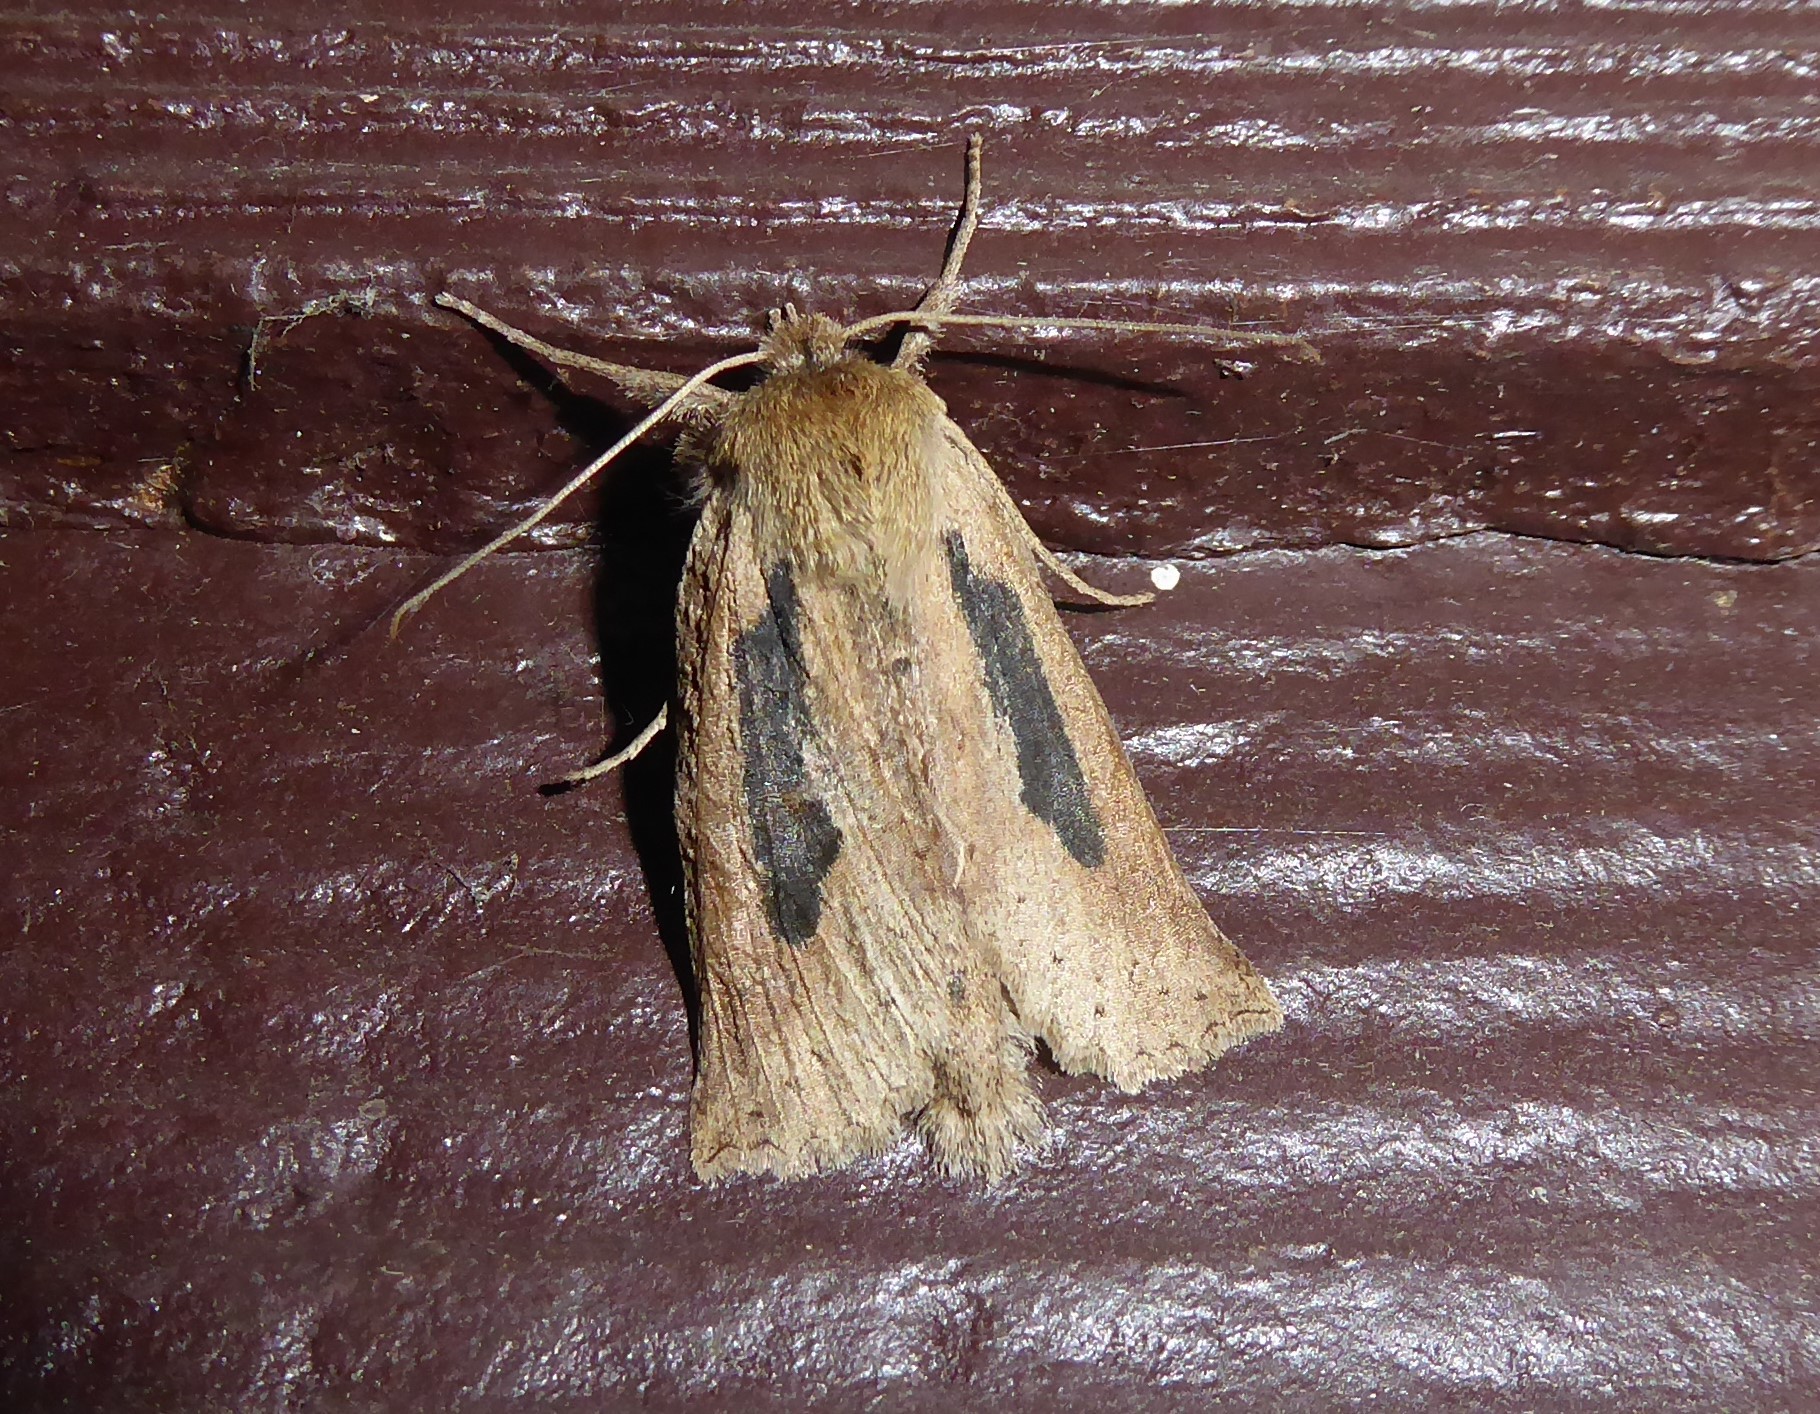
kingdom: Animalia
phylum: Arthropoda
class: Insecta
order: Lepidoptera
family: Geometridae
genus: Declana
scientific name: Declana leptomera
